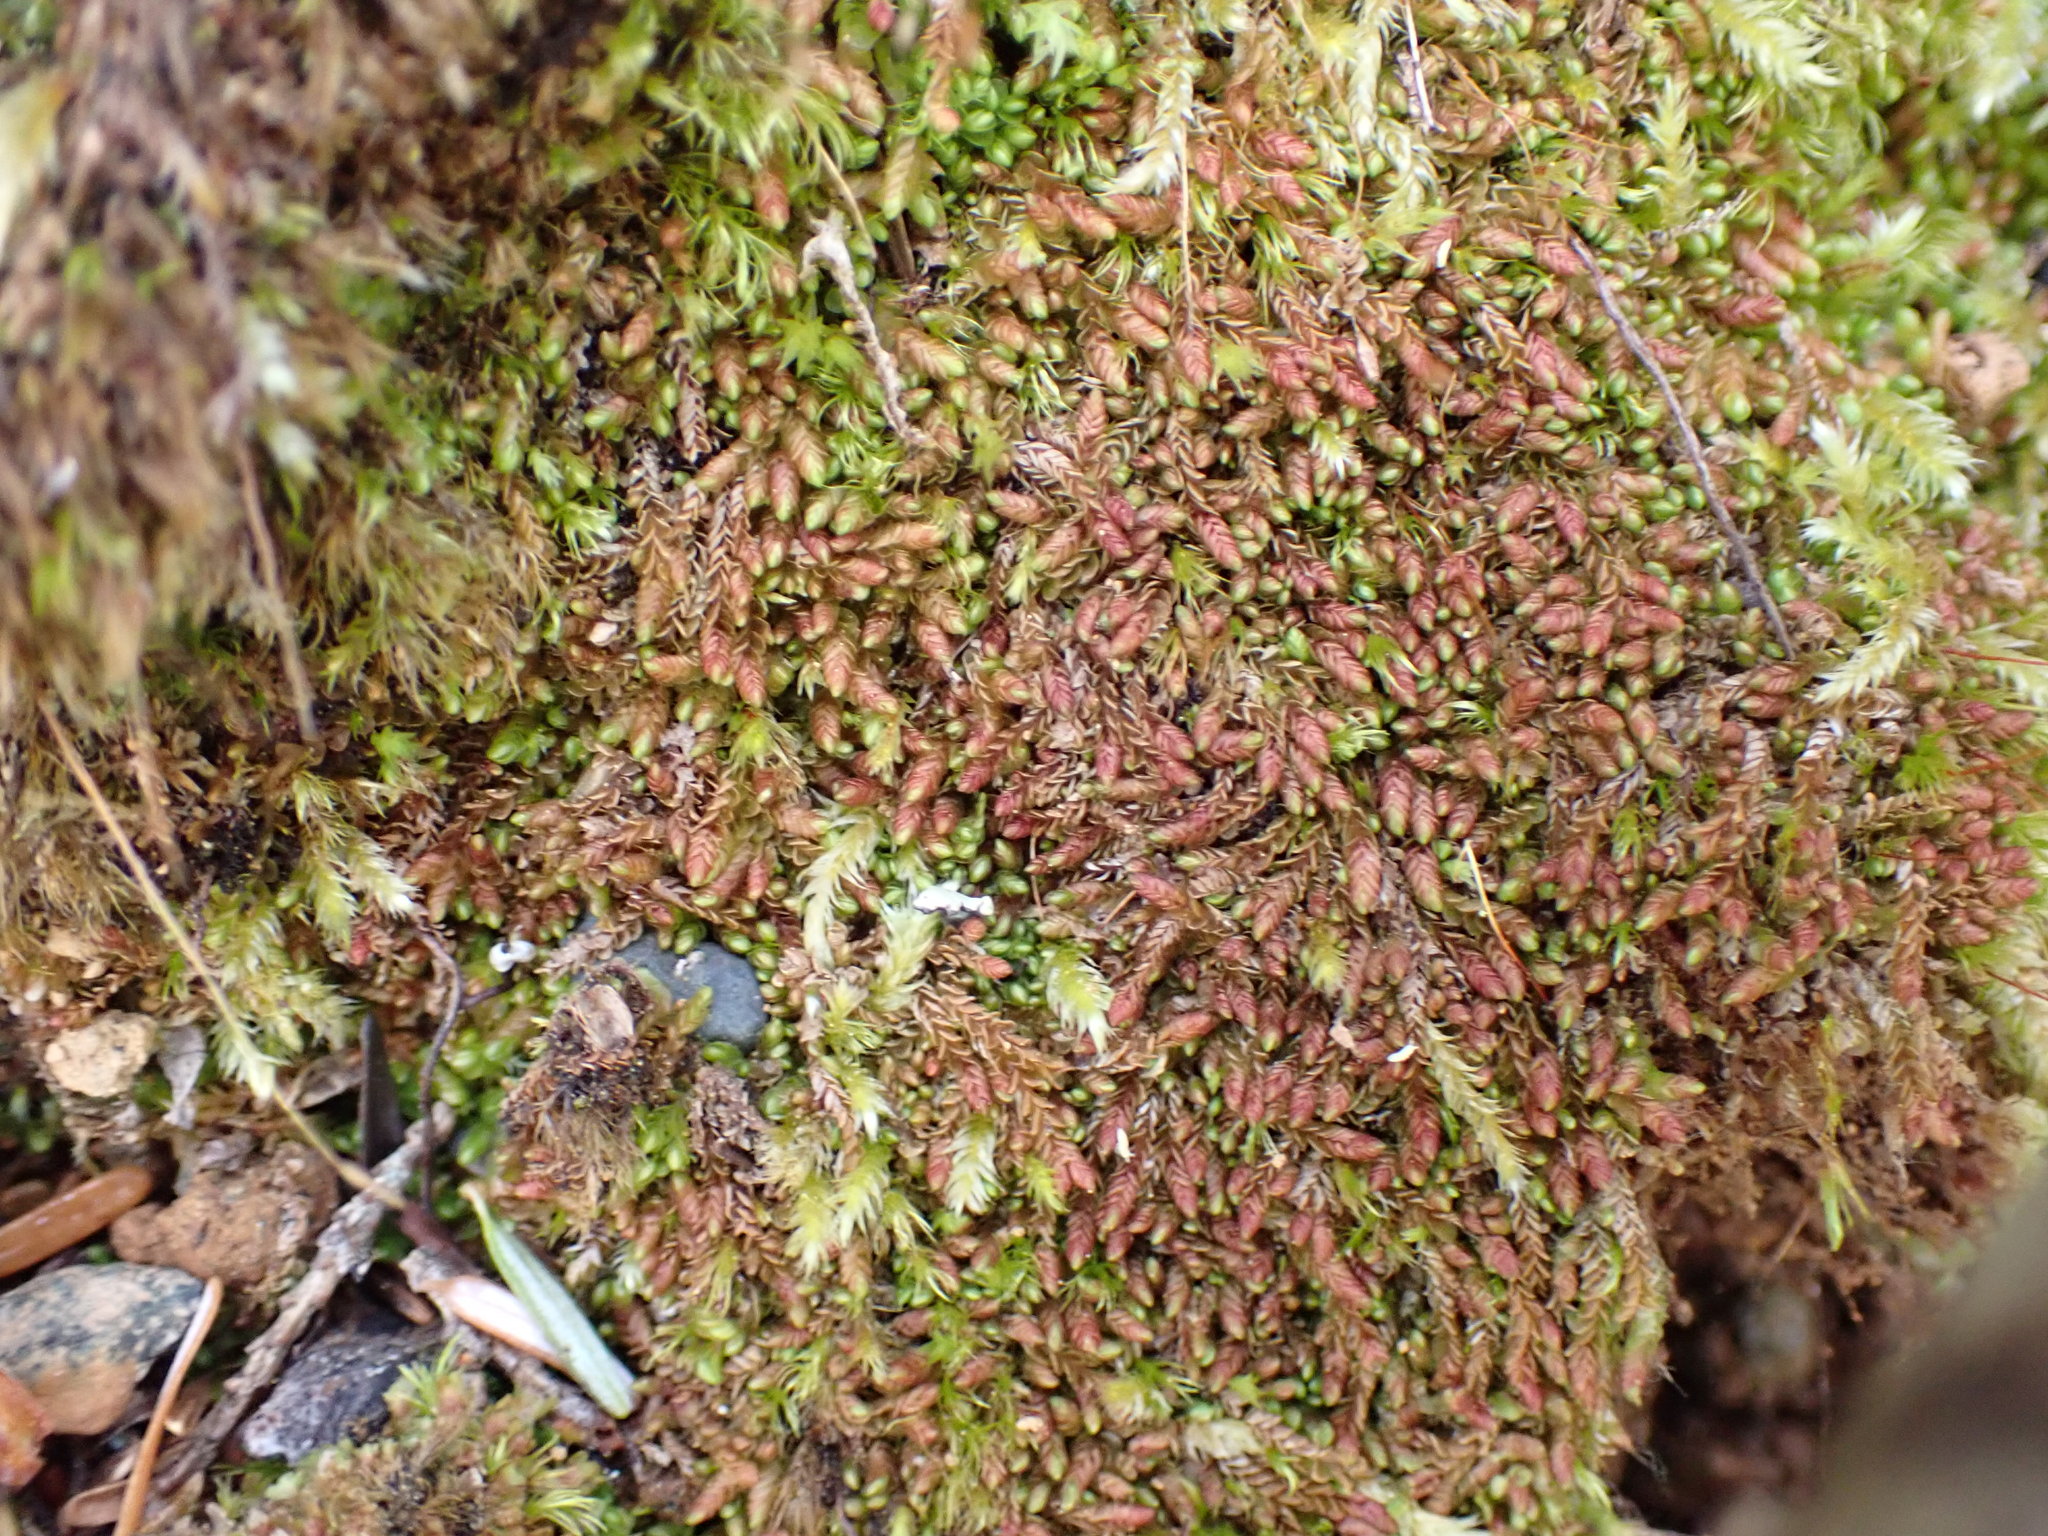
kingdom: Plantae
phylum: Marchantiophyta
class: Jungermanniopsida
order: Jungermanniales
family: Solenostomataceae
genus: Solenostoma
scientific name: Solenostoma rubrum
